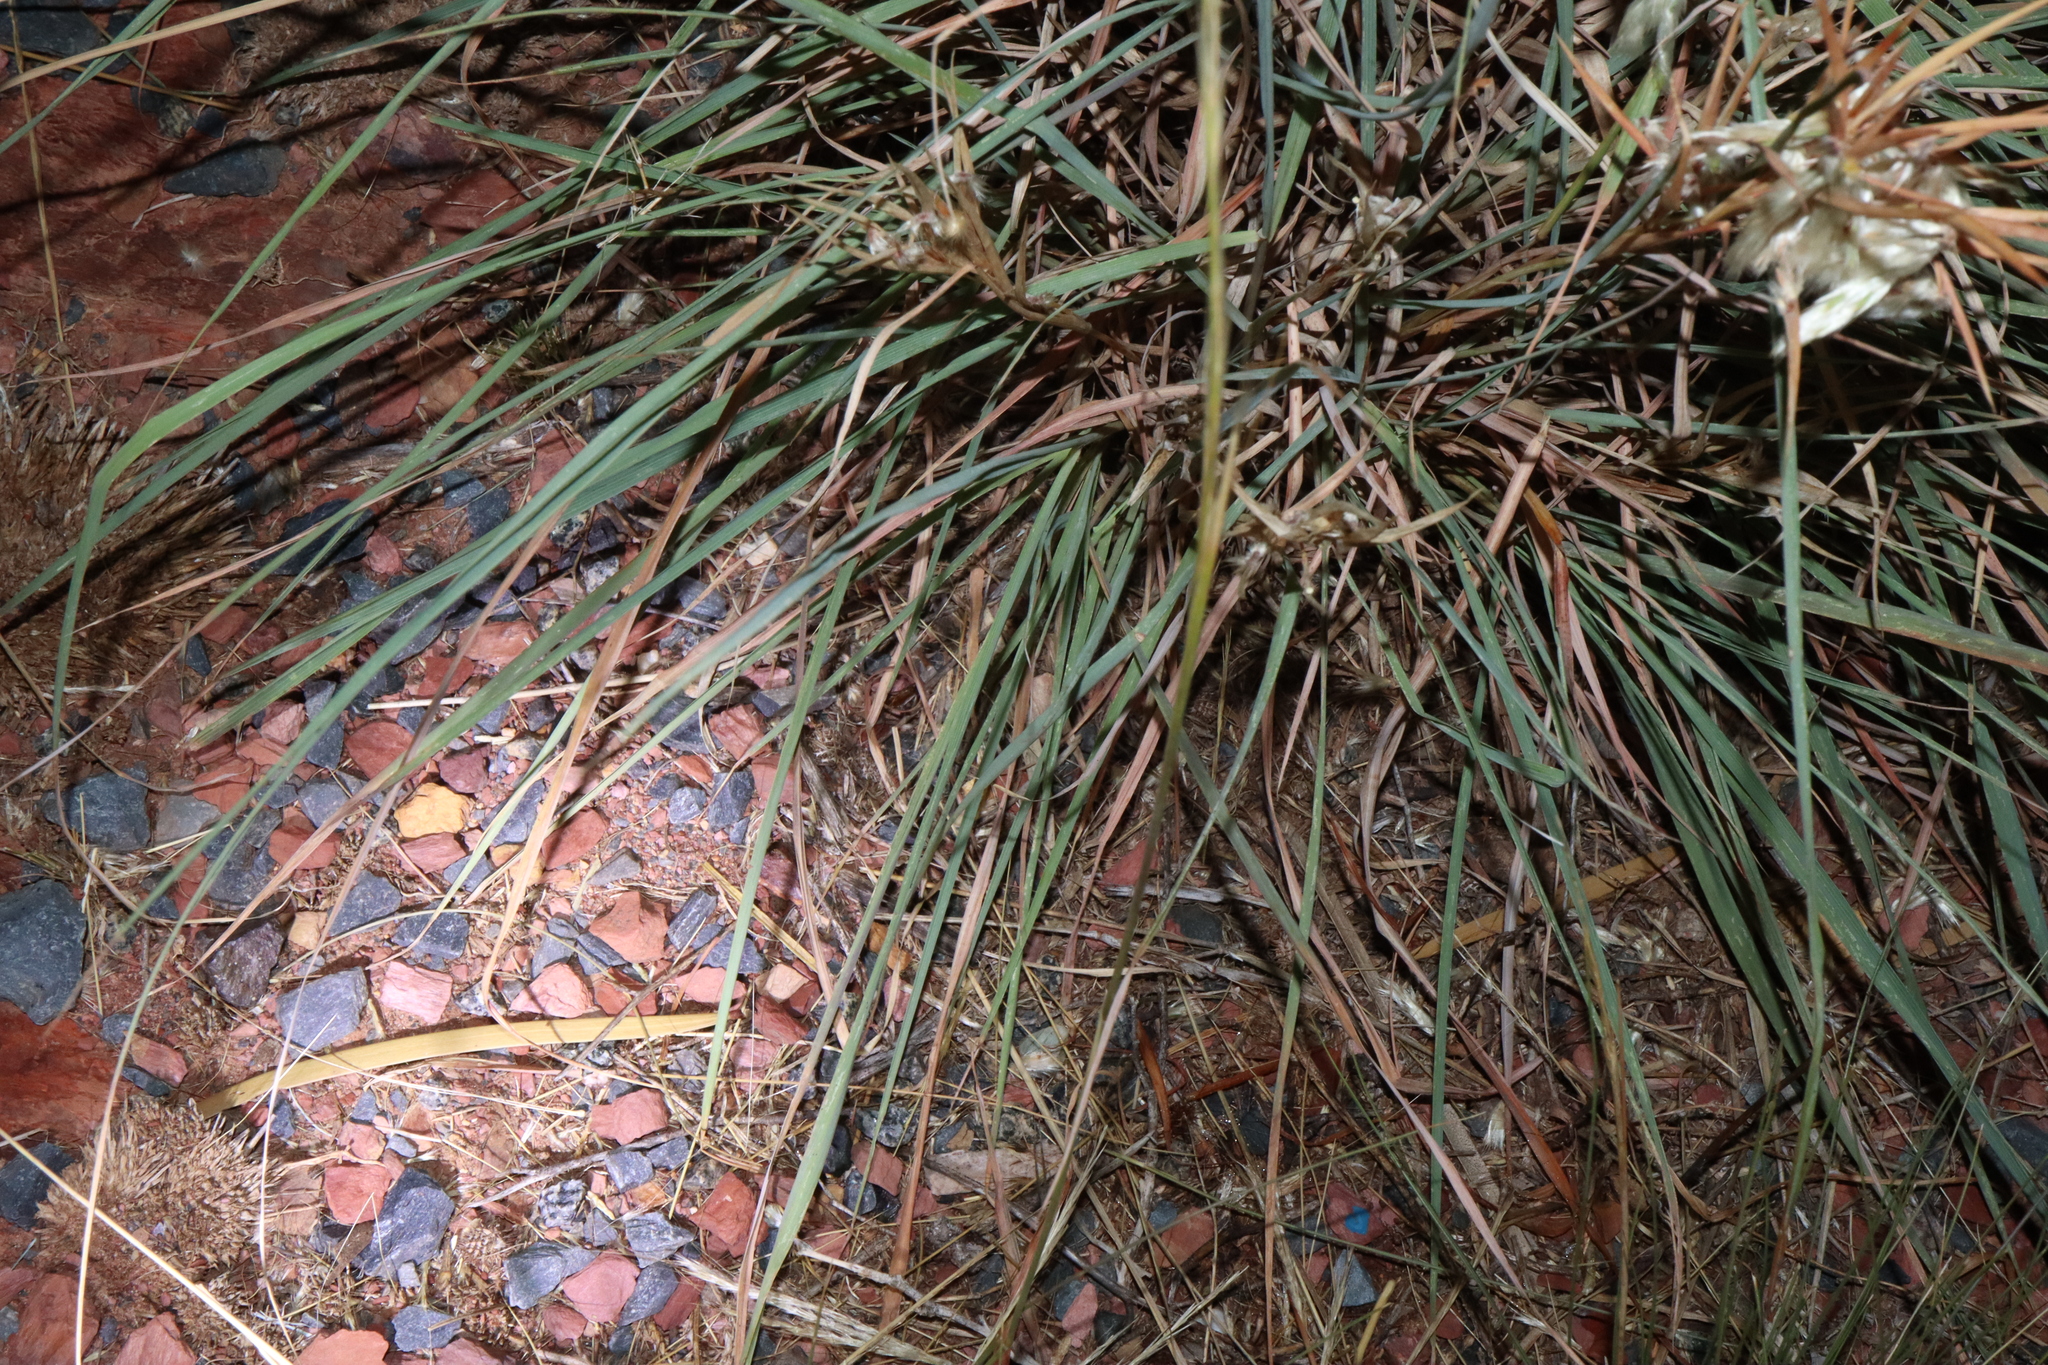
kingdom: Plantae
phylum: Tracheophyta
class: Liliopsida
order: Poales
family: Poaceae
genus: Cymbopogon
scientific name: Cymbopogon ambiguus
